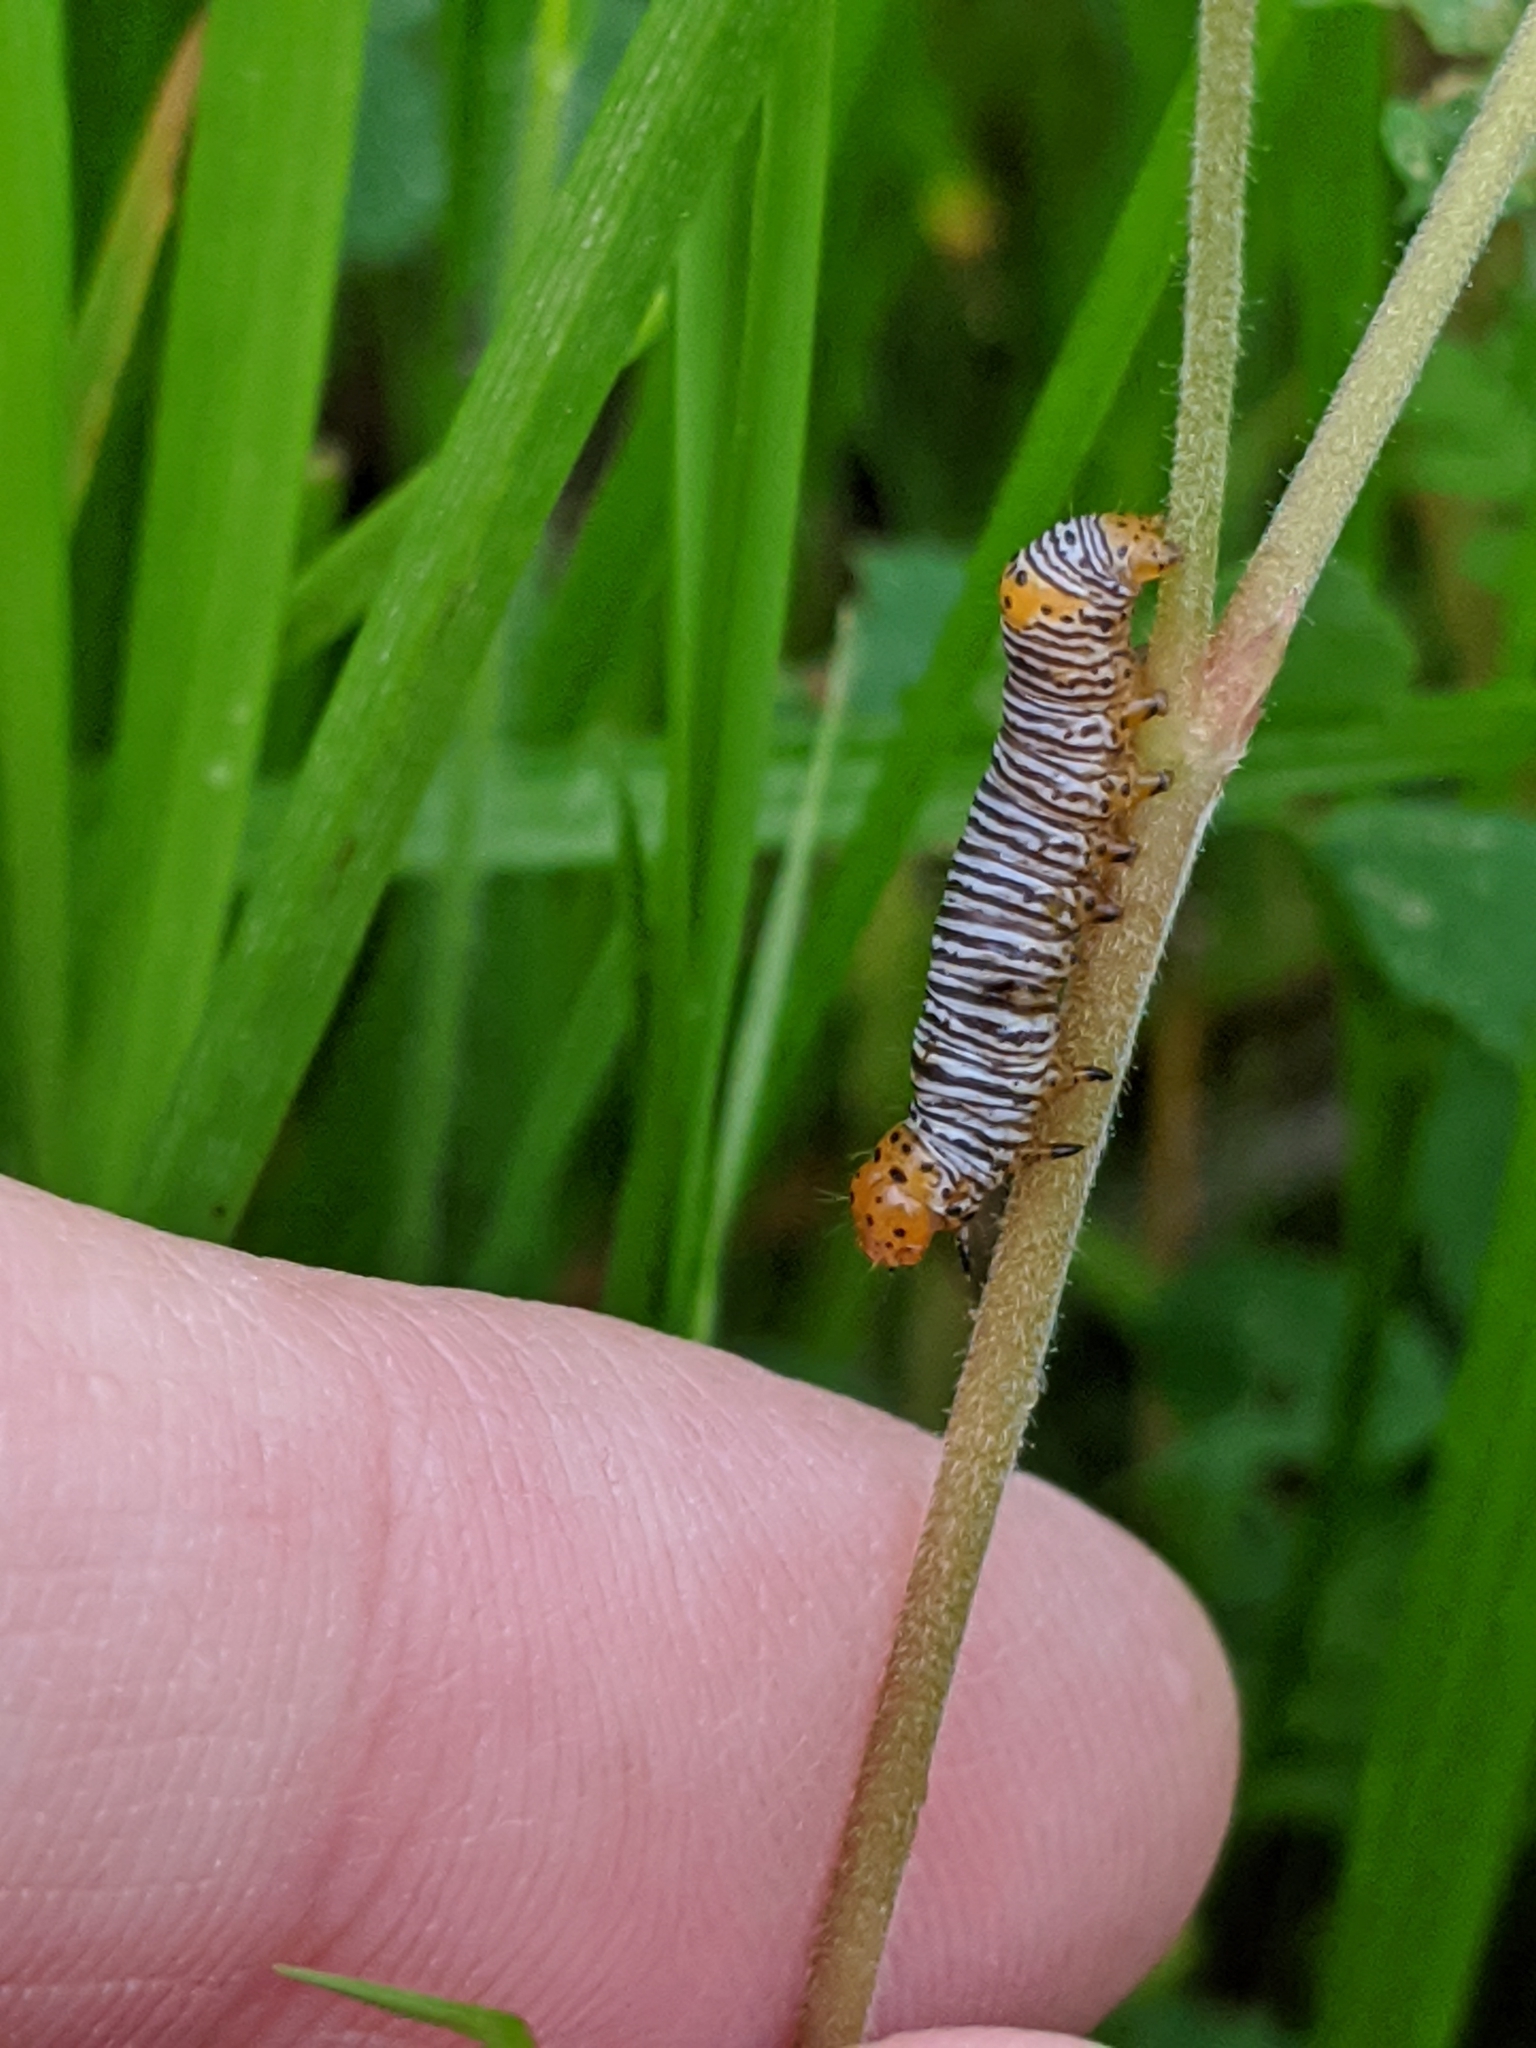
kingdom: Animalia
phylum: Arthropoda
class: Insecta
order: Lepidoptera
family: Noctuidae
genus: Psychomorpha
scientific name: Psychomorpha epimenis
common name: Grapevine epimenis moth
